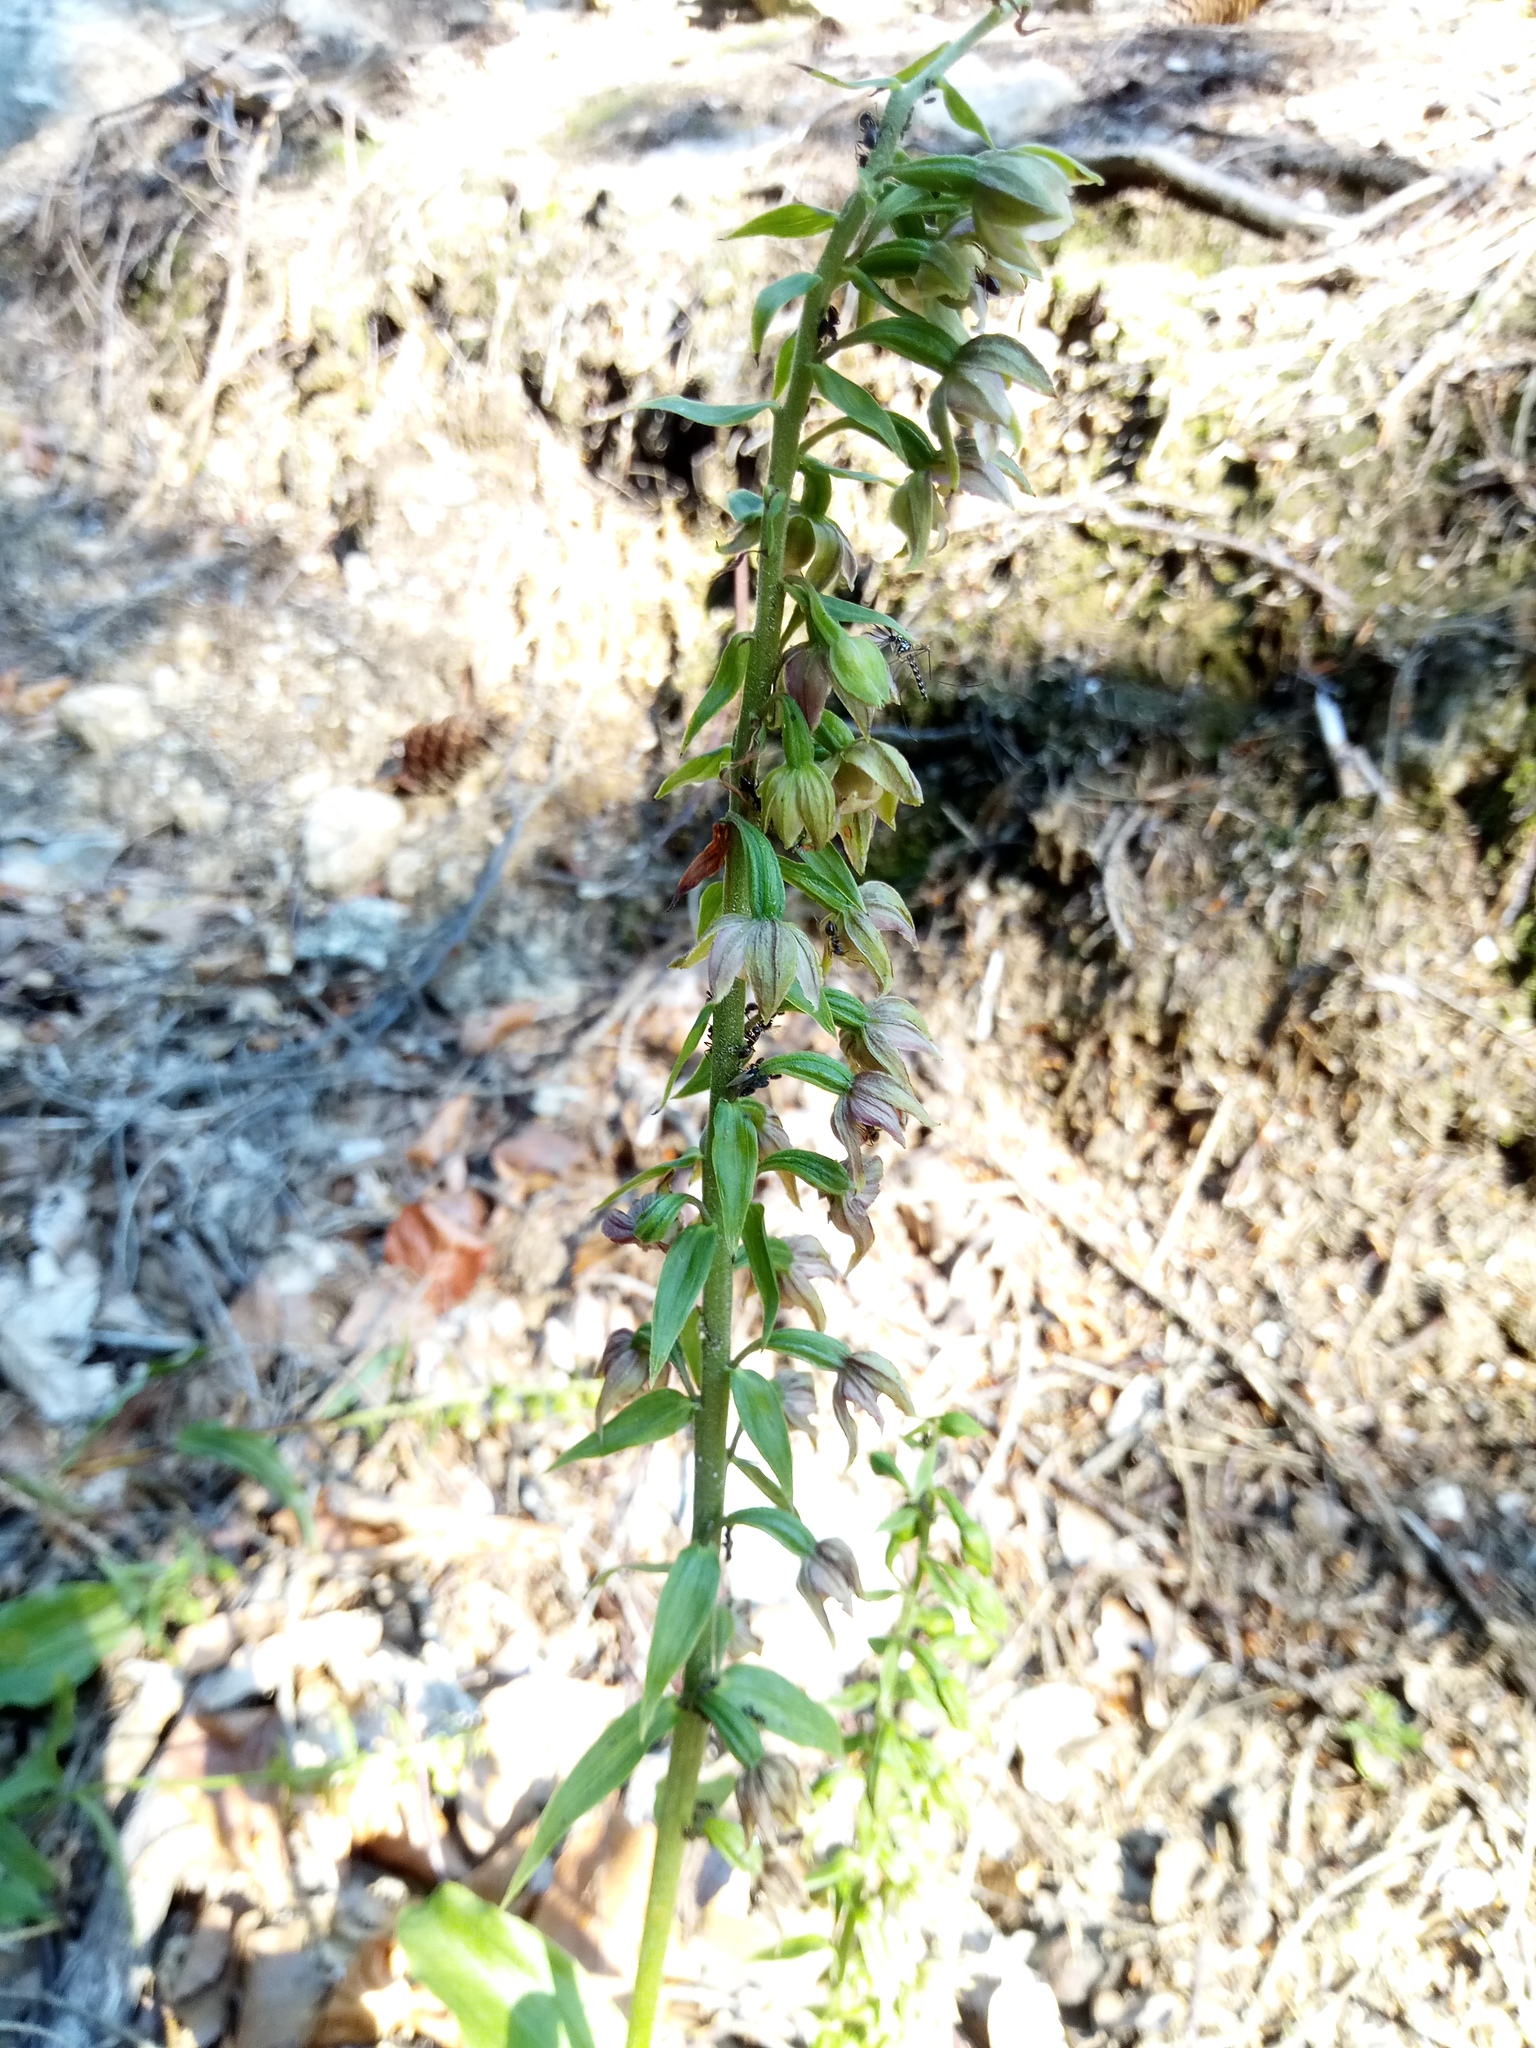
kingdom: Plantae
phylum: Tracheophyta
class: Liliopsida
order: Asparagales
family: Orchidaceae
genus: Epipactis
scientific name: Epipactis helleborine
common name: Broad-leaved helleborine
